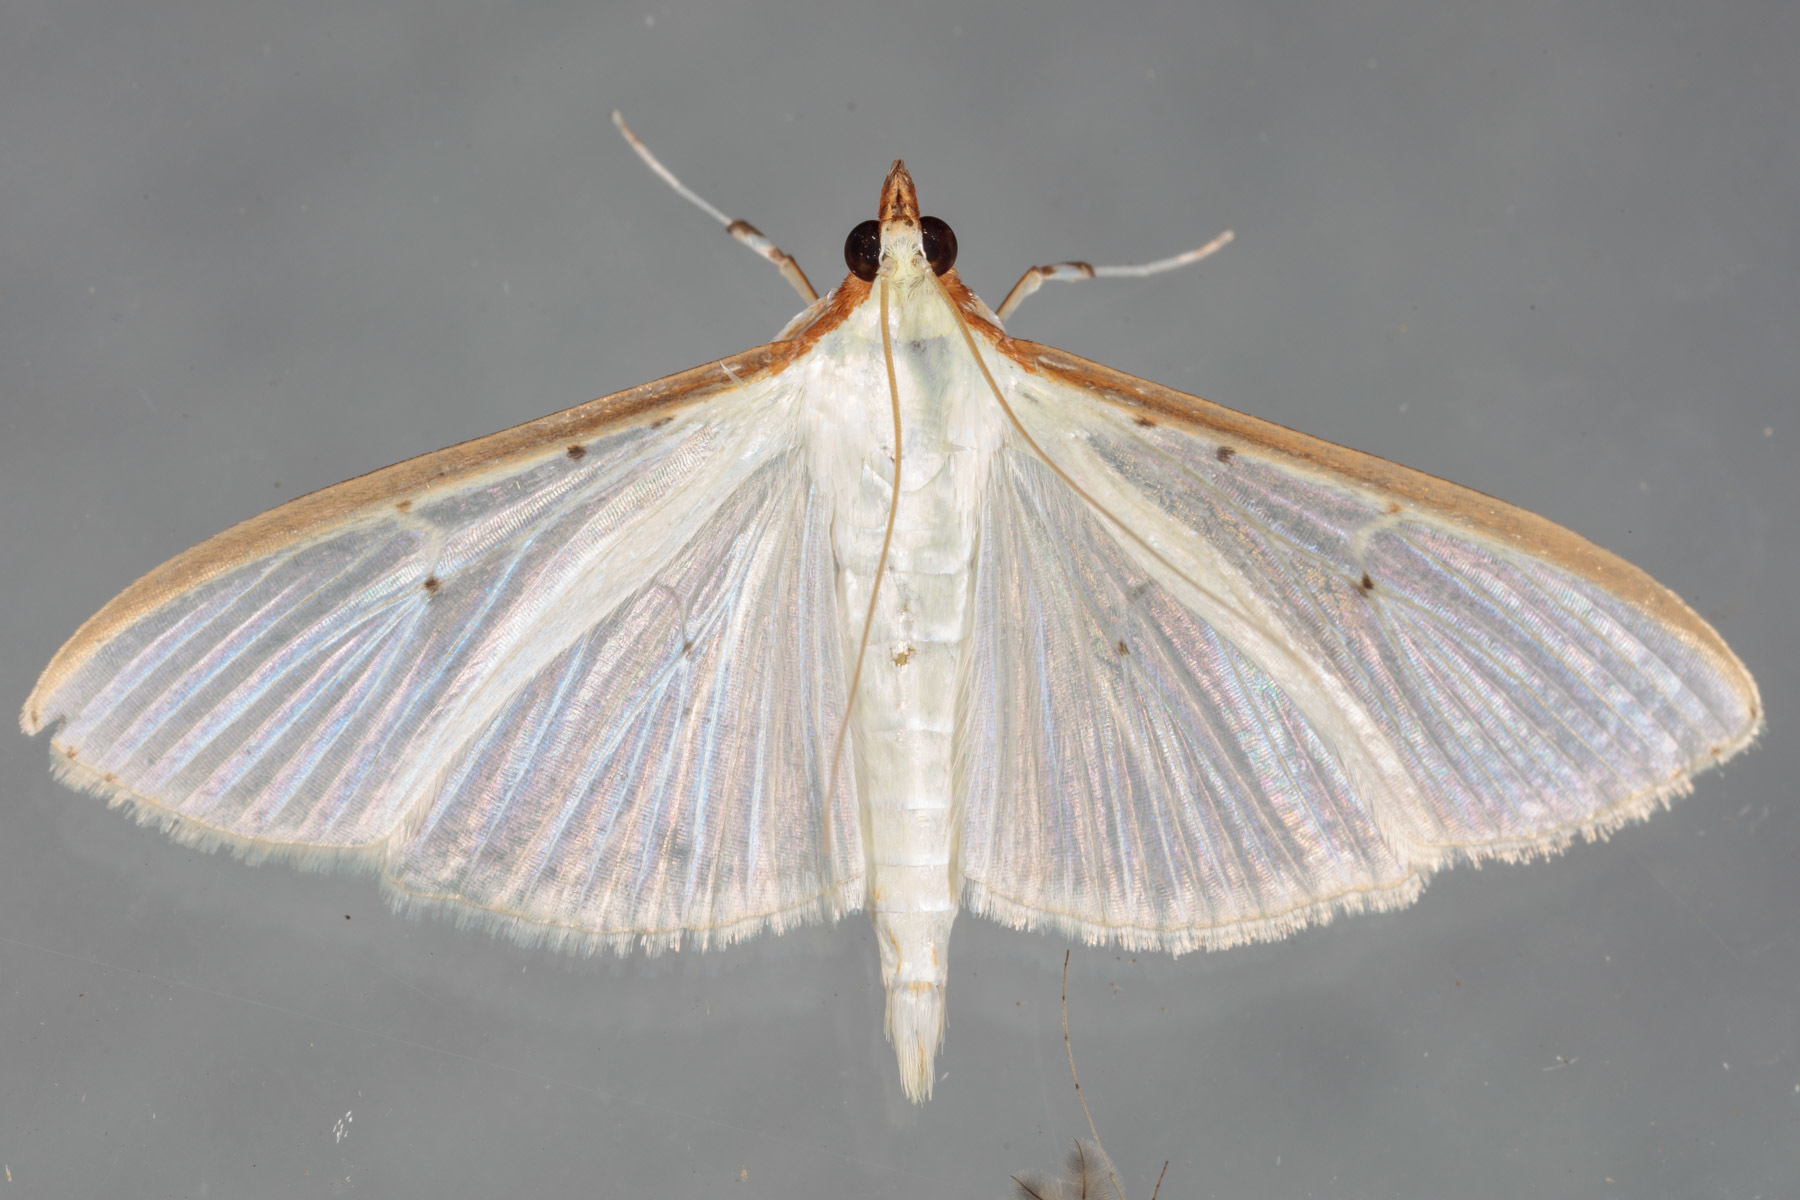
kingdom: Animalia
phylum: Arthropoda
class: Insecta
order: Lepidoptera
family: Crambidae
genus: Palpita
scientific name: Palpita quadristigmalis
